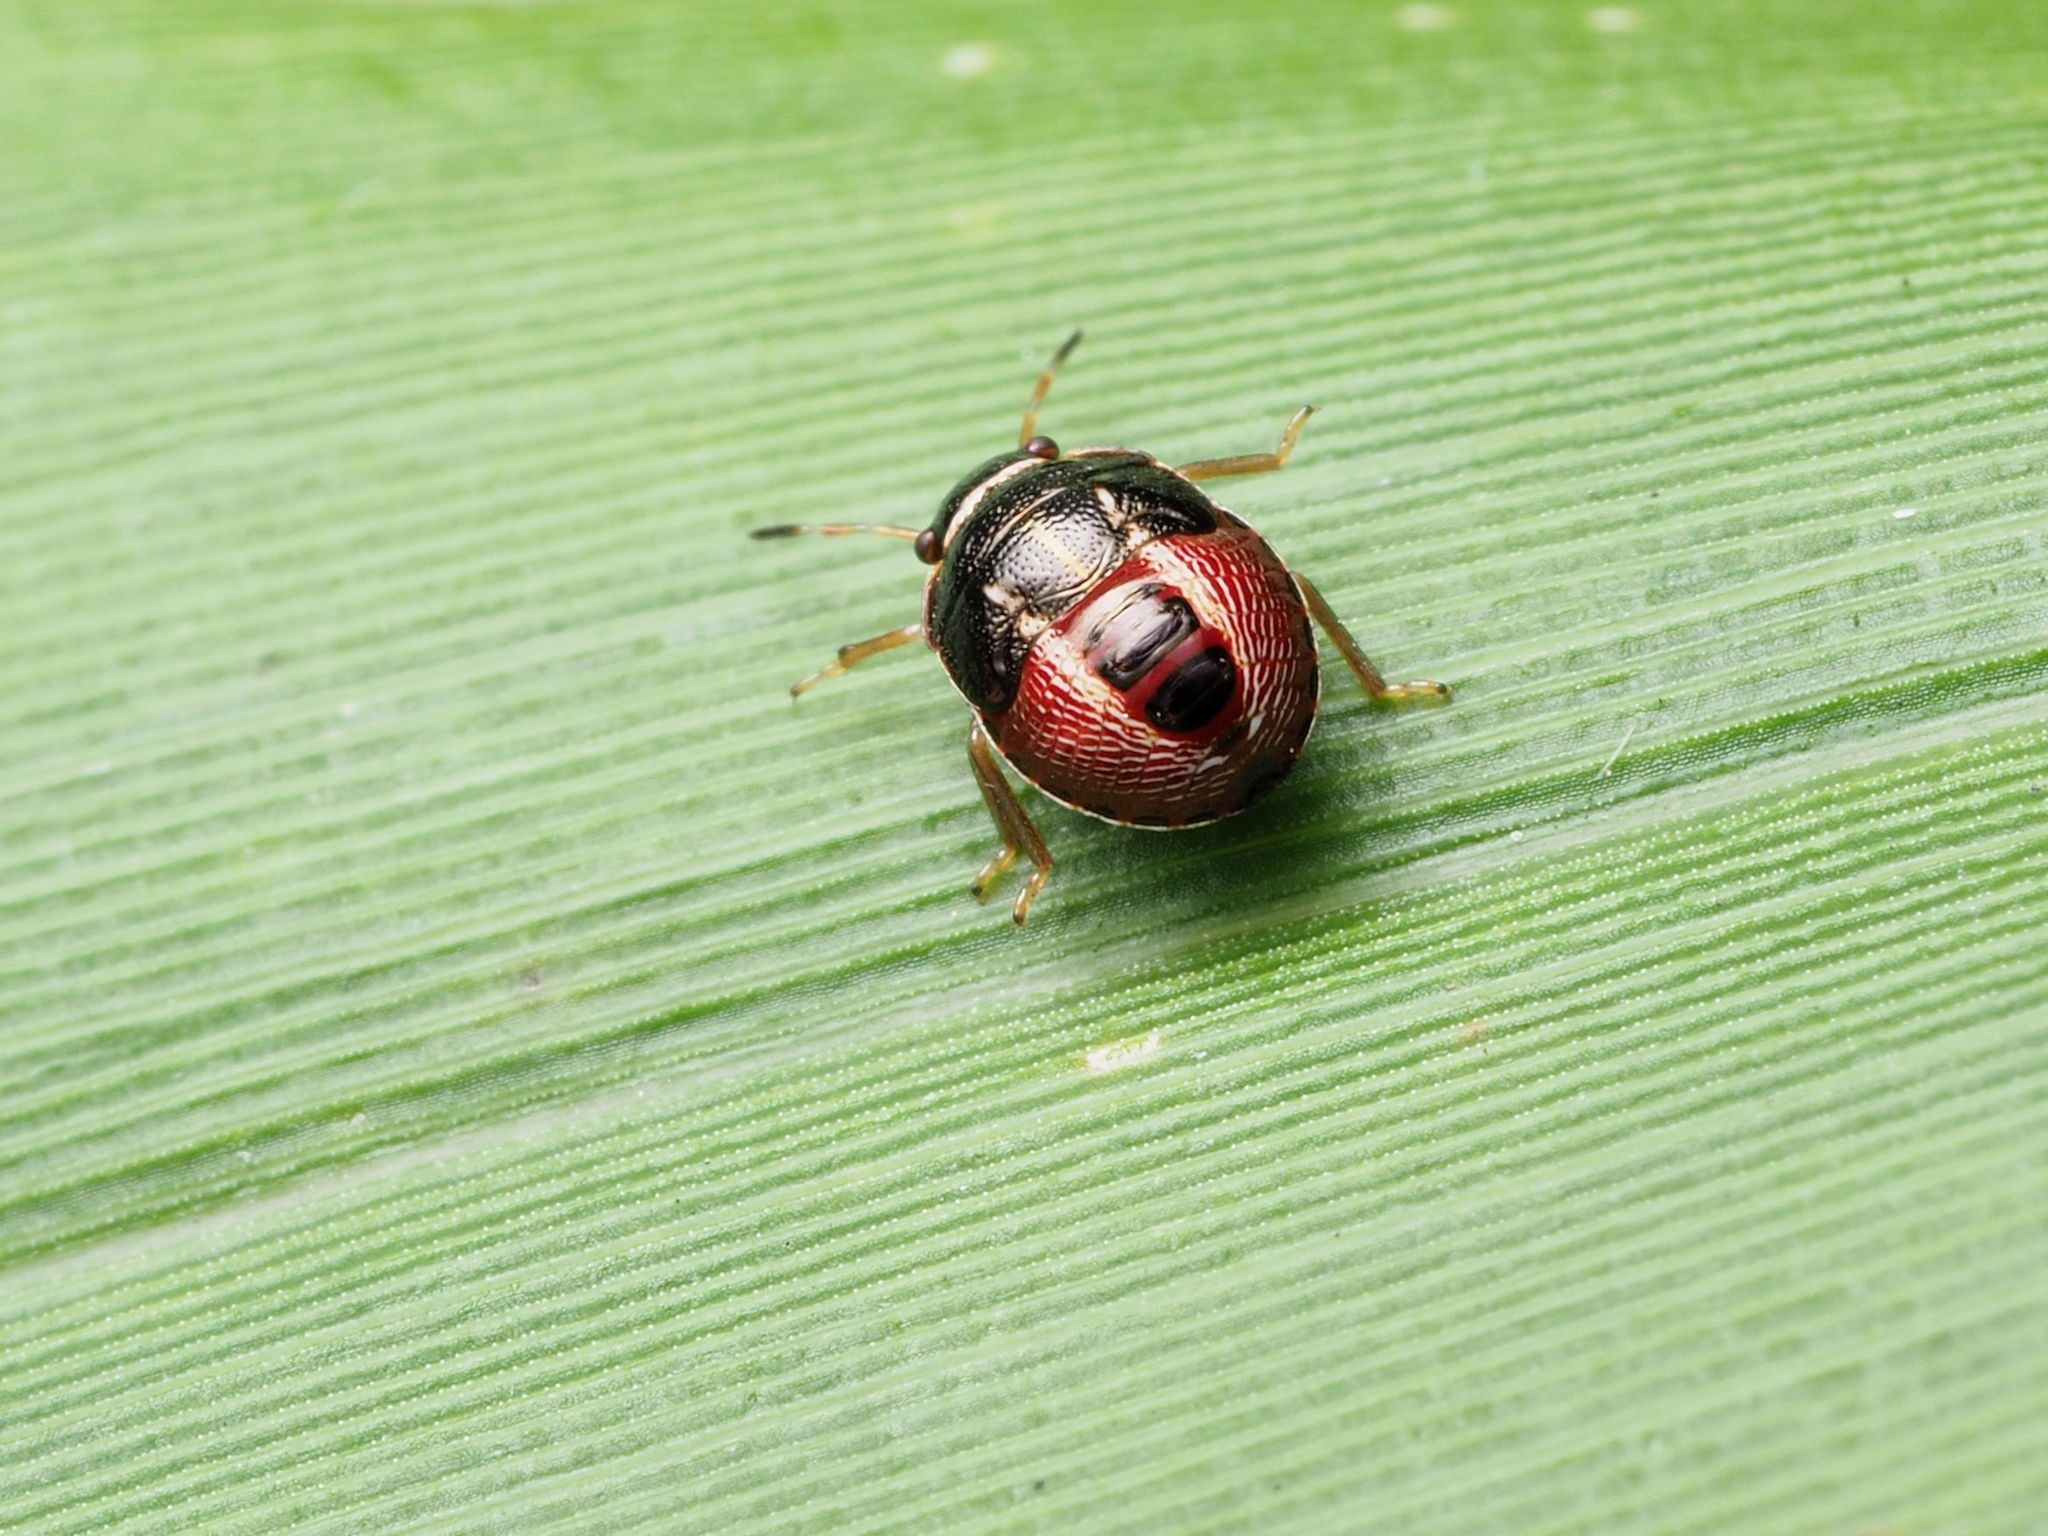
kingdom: Animalia
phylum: Arthropoda
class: Insecta
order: Hemiptera
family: Pentatomidae
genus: Mormidea
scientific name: Mormidea lugens
